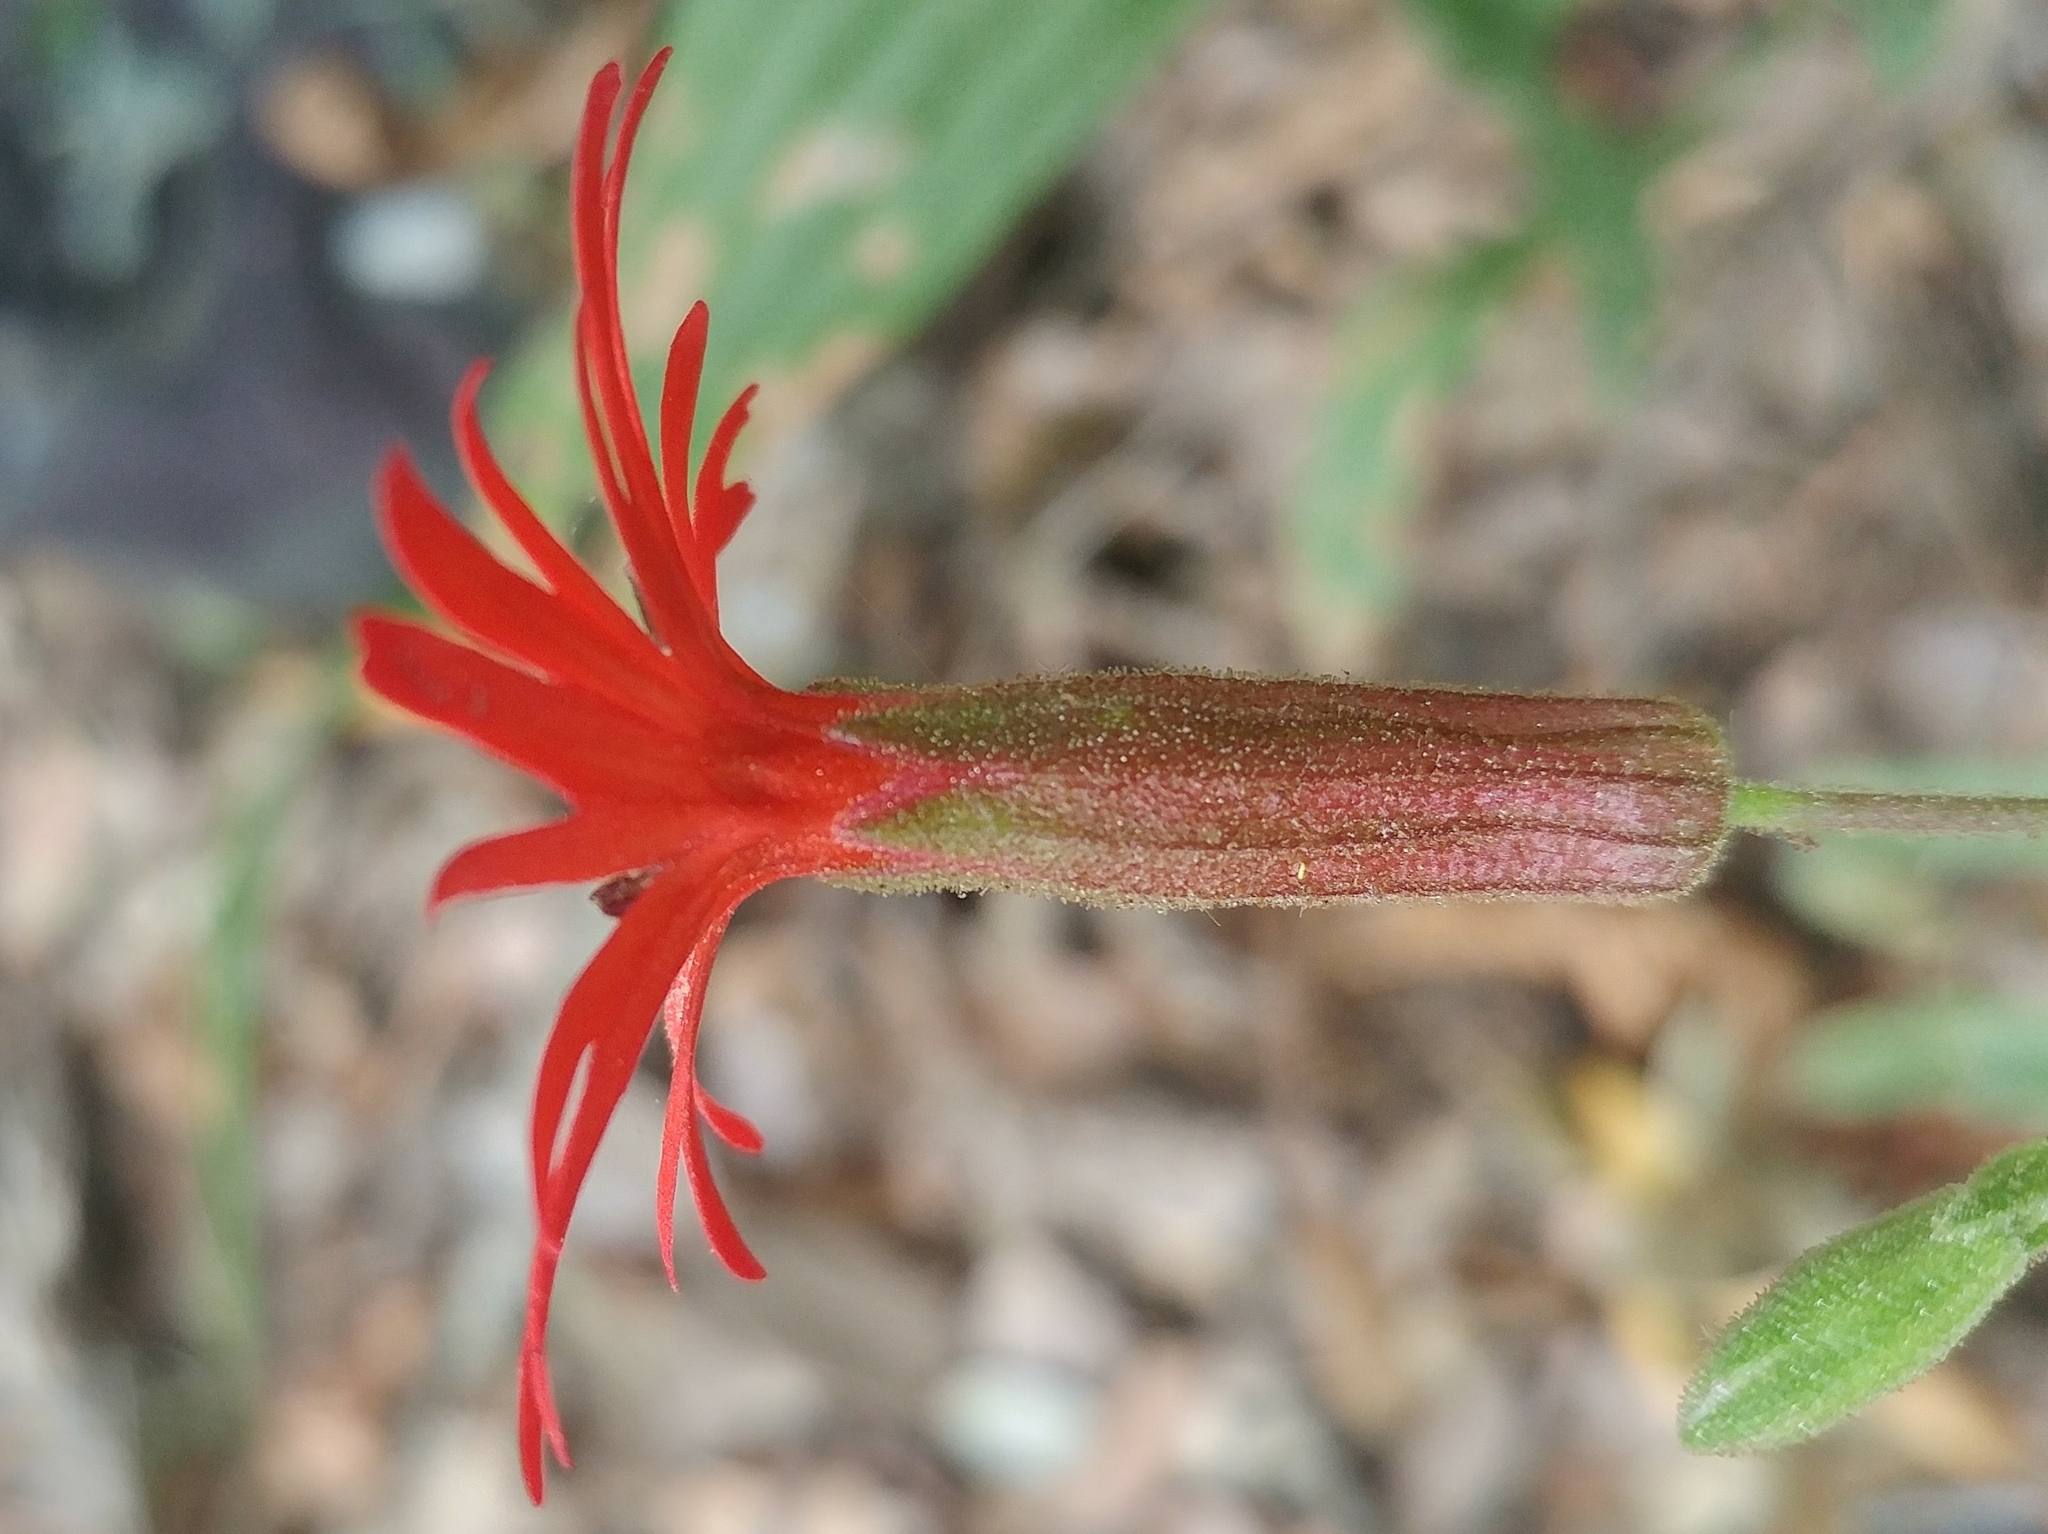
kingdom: Plantae
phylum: Tracheophyta
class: Magnoliopsida
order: Caryophyllales
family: Caryophyllaceae
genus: Silene
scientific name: Silene laciniata
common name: Indian-pink
